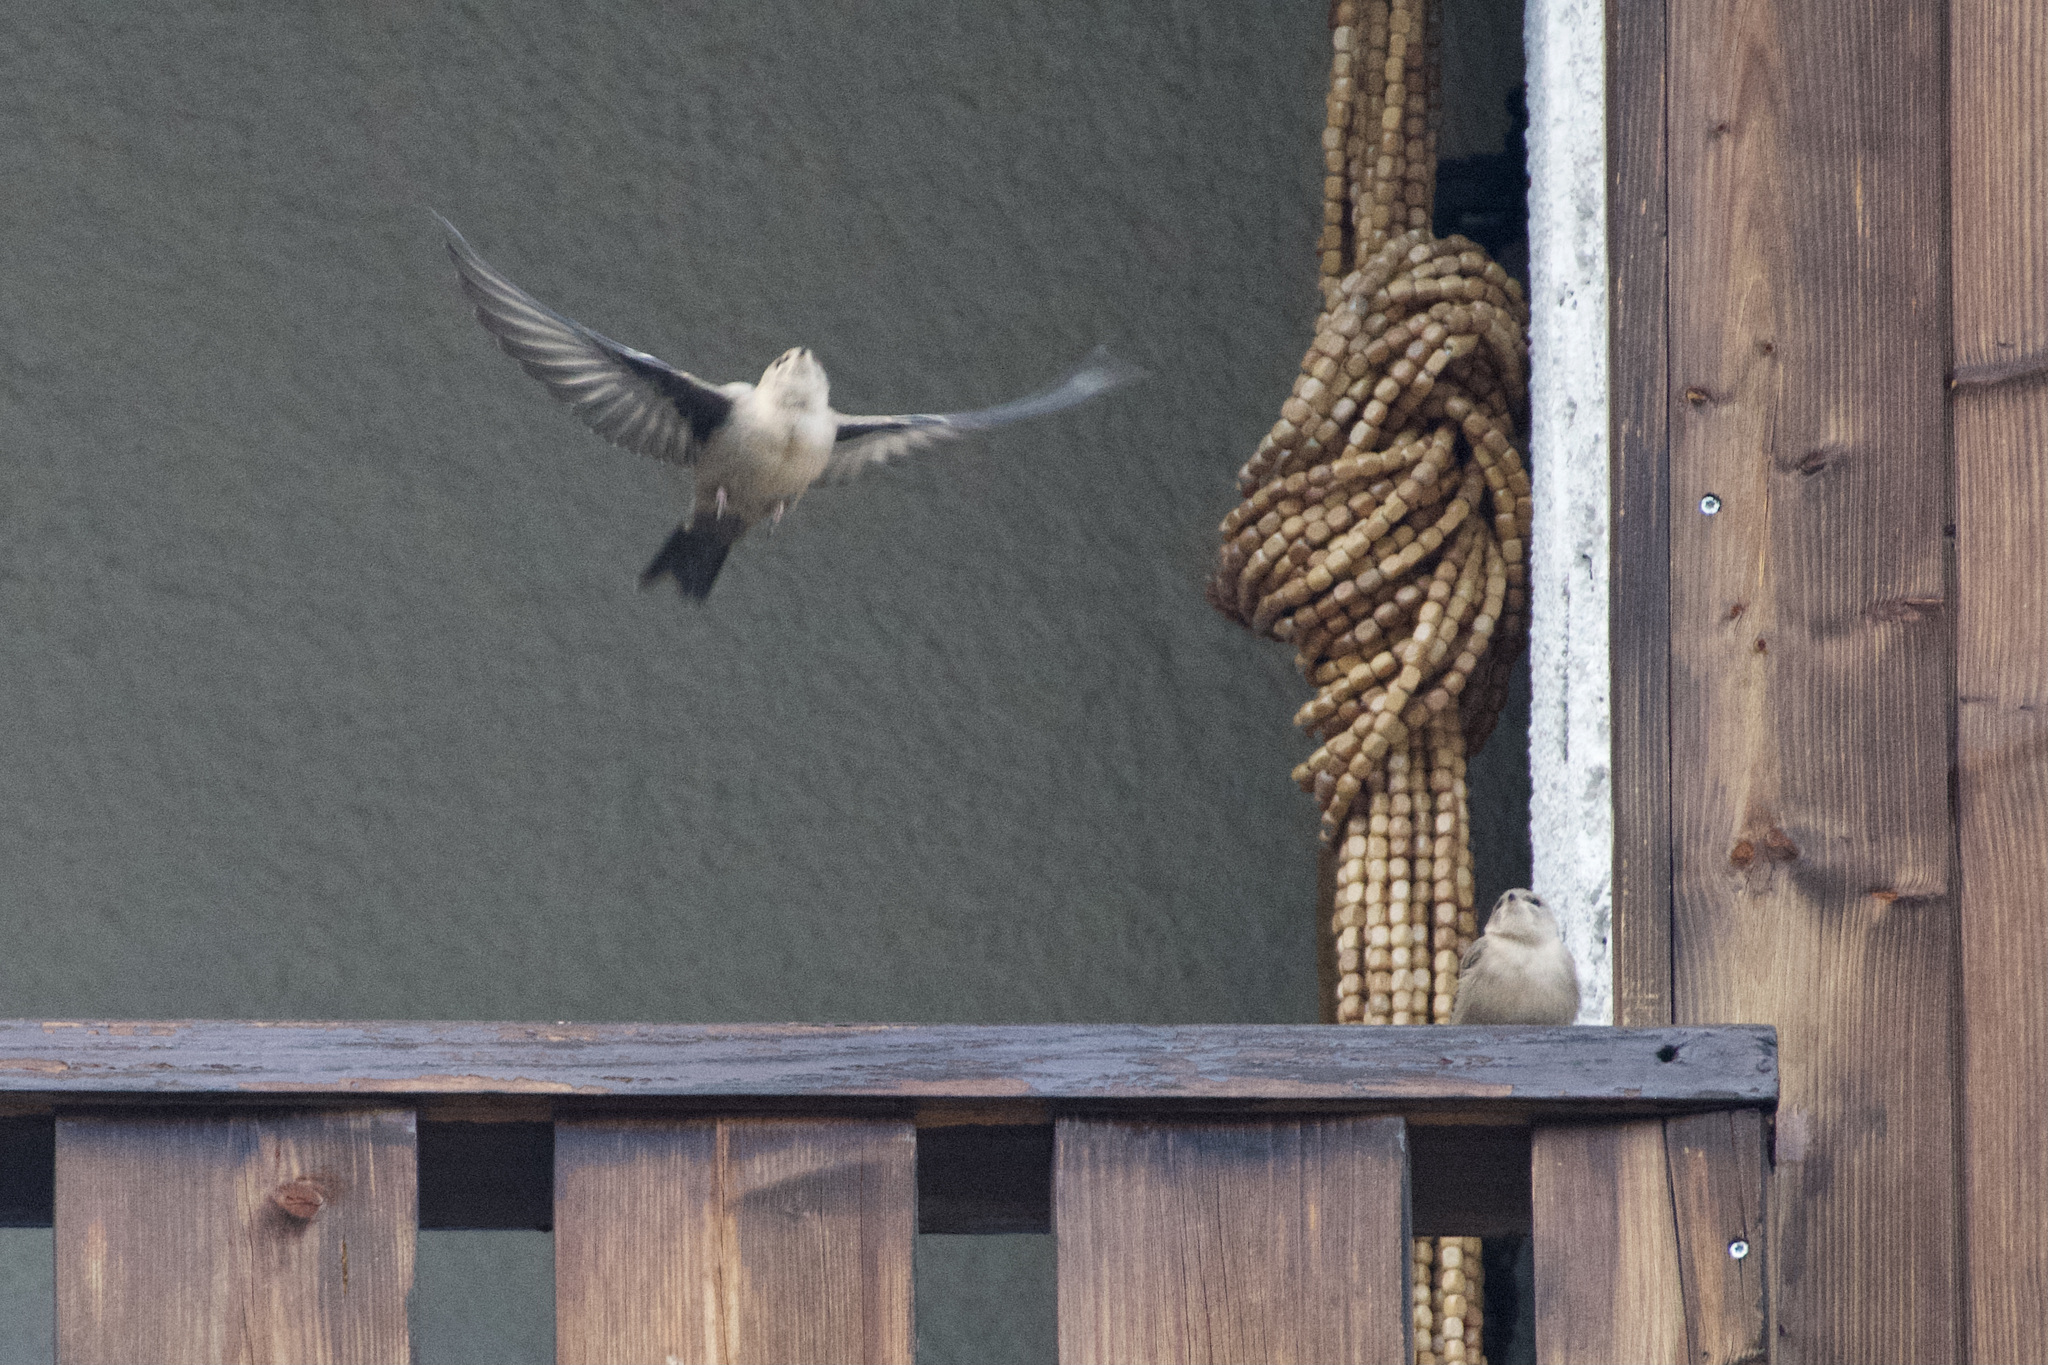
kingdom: Animalia
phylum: Chordata
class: Aves
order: Passeriformes
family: Hirundinidae
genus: Ptyonoprogne
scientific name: Ptyonoprogne rupestris
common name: Eurasian crag martin
